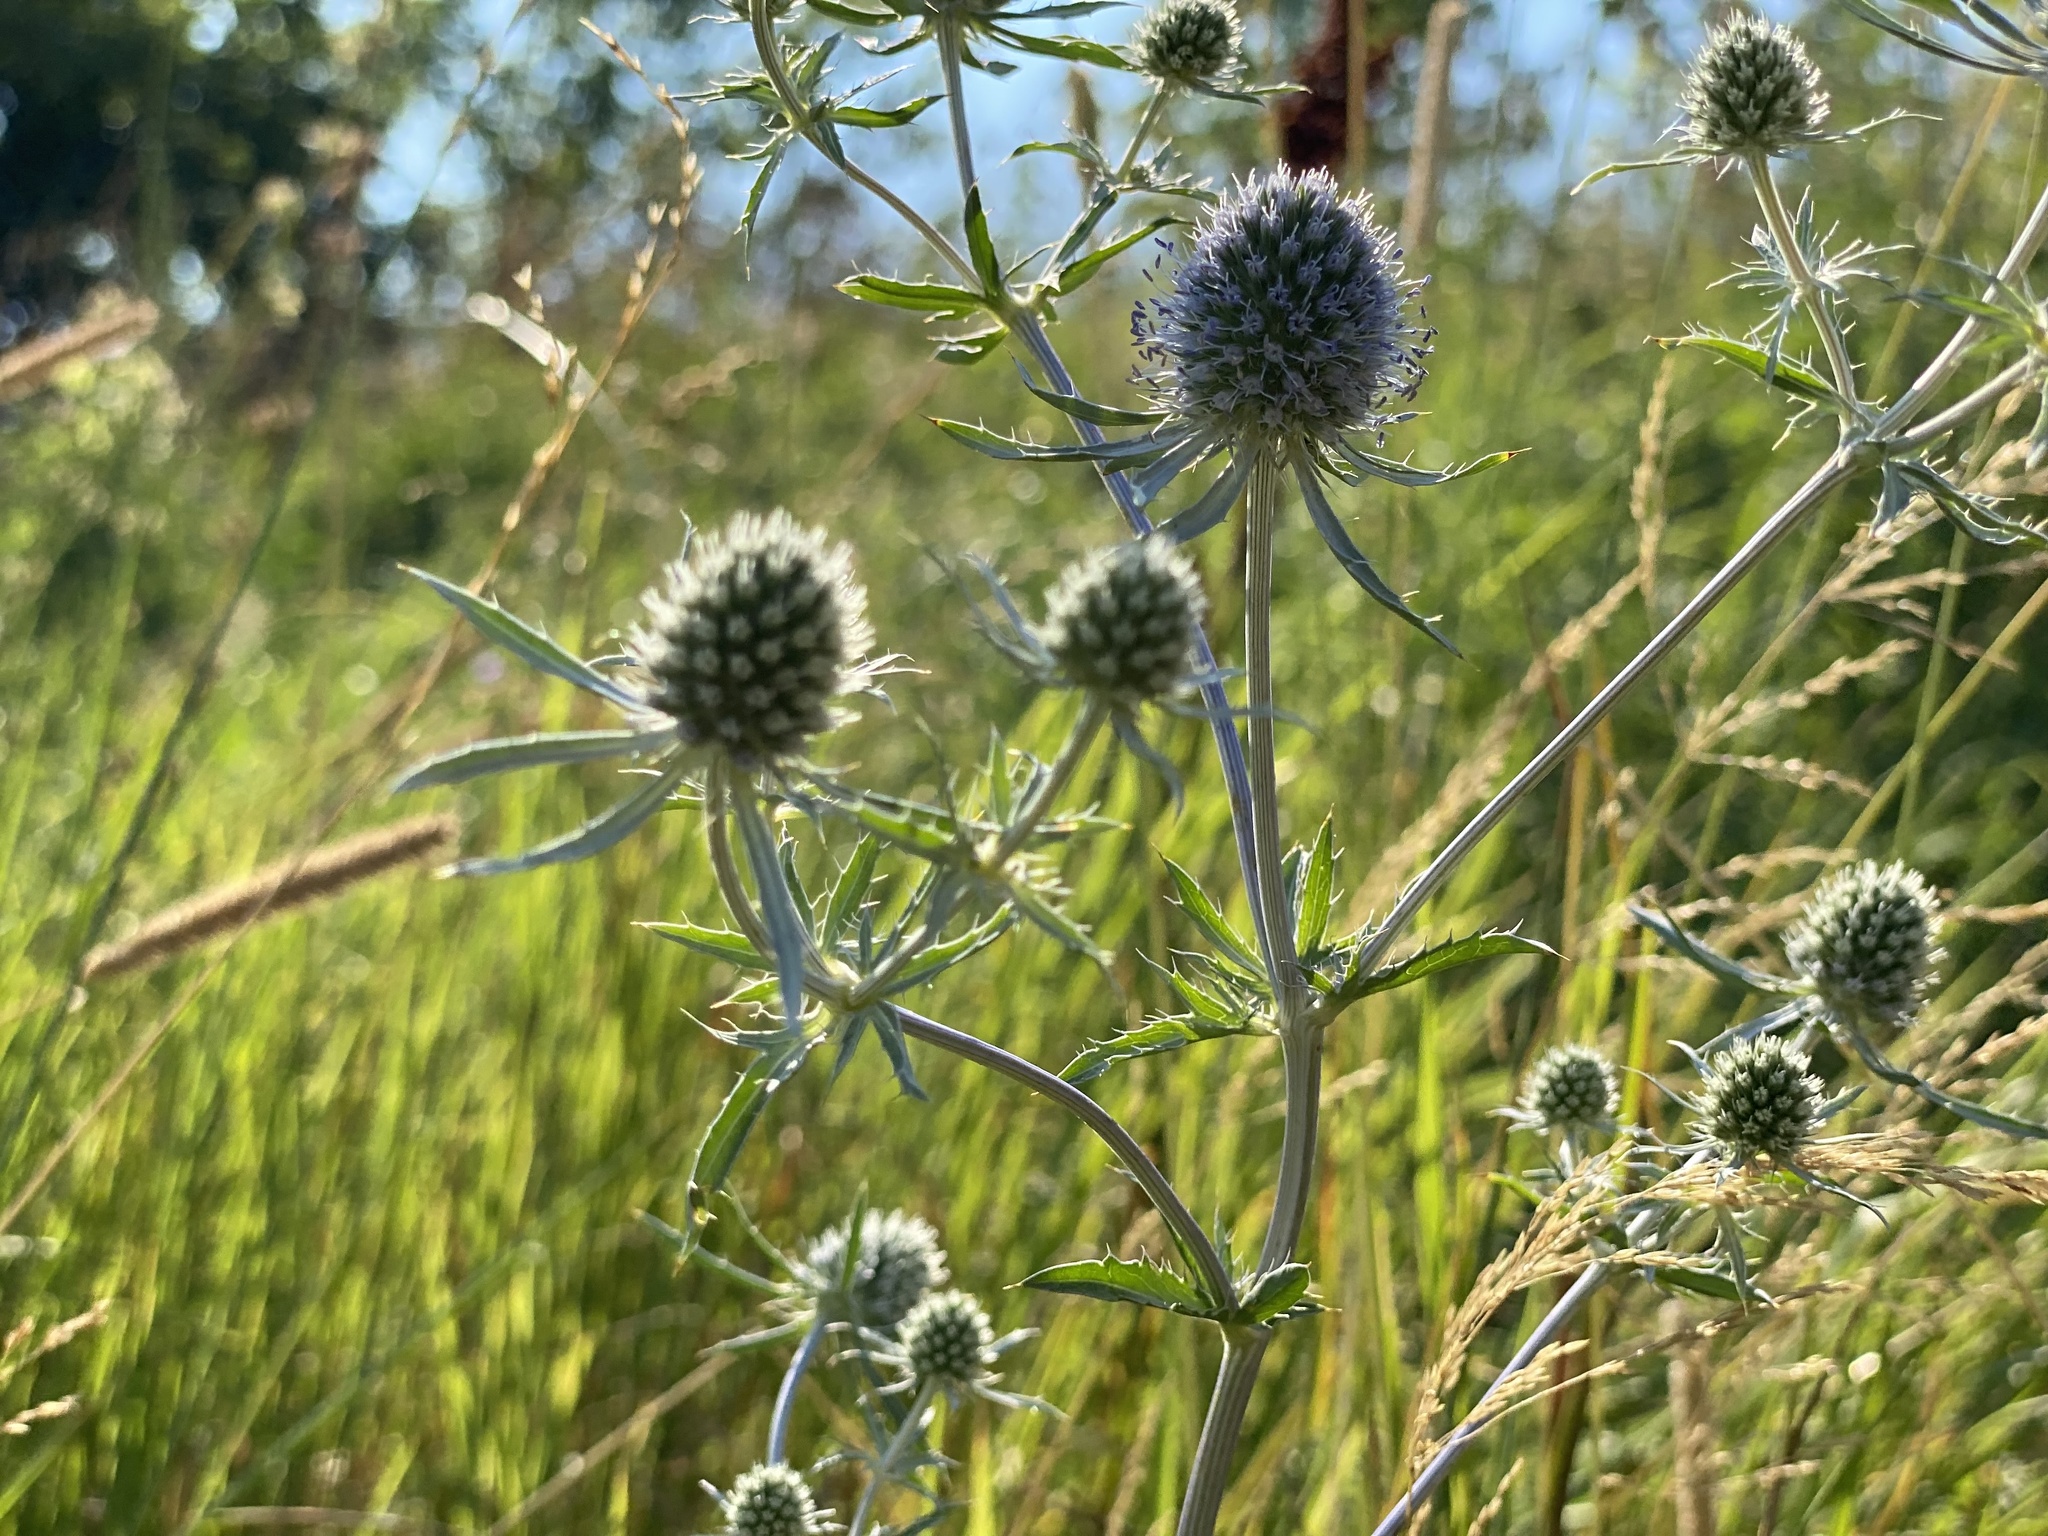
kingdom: Plantae
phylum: Tracheophyta
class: Magnoliopsida
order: Apiales
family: Apiaceae
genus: Eryngium
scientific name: Eryngium planum
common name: Blue eryngo
